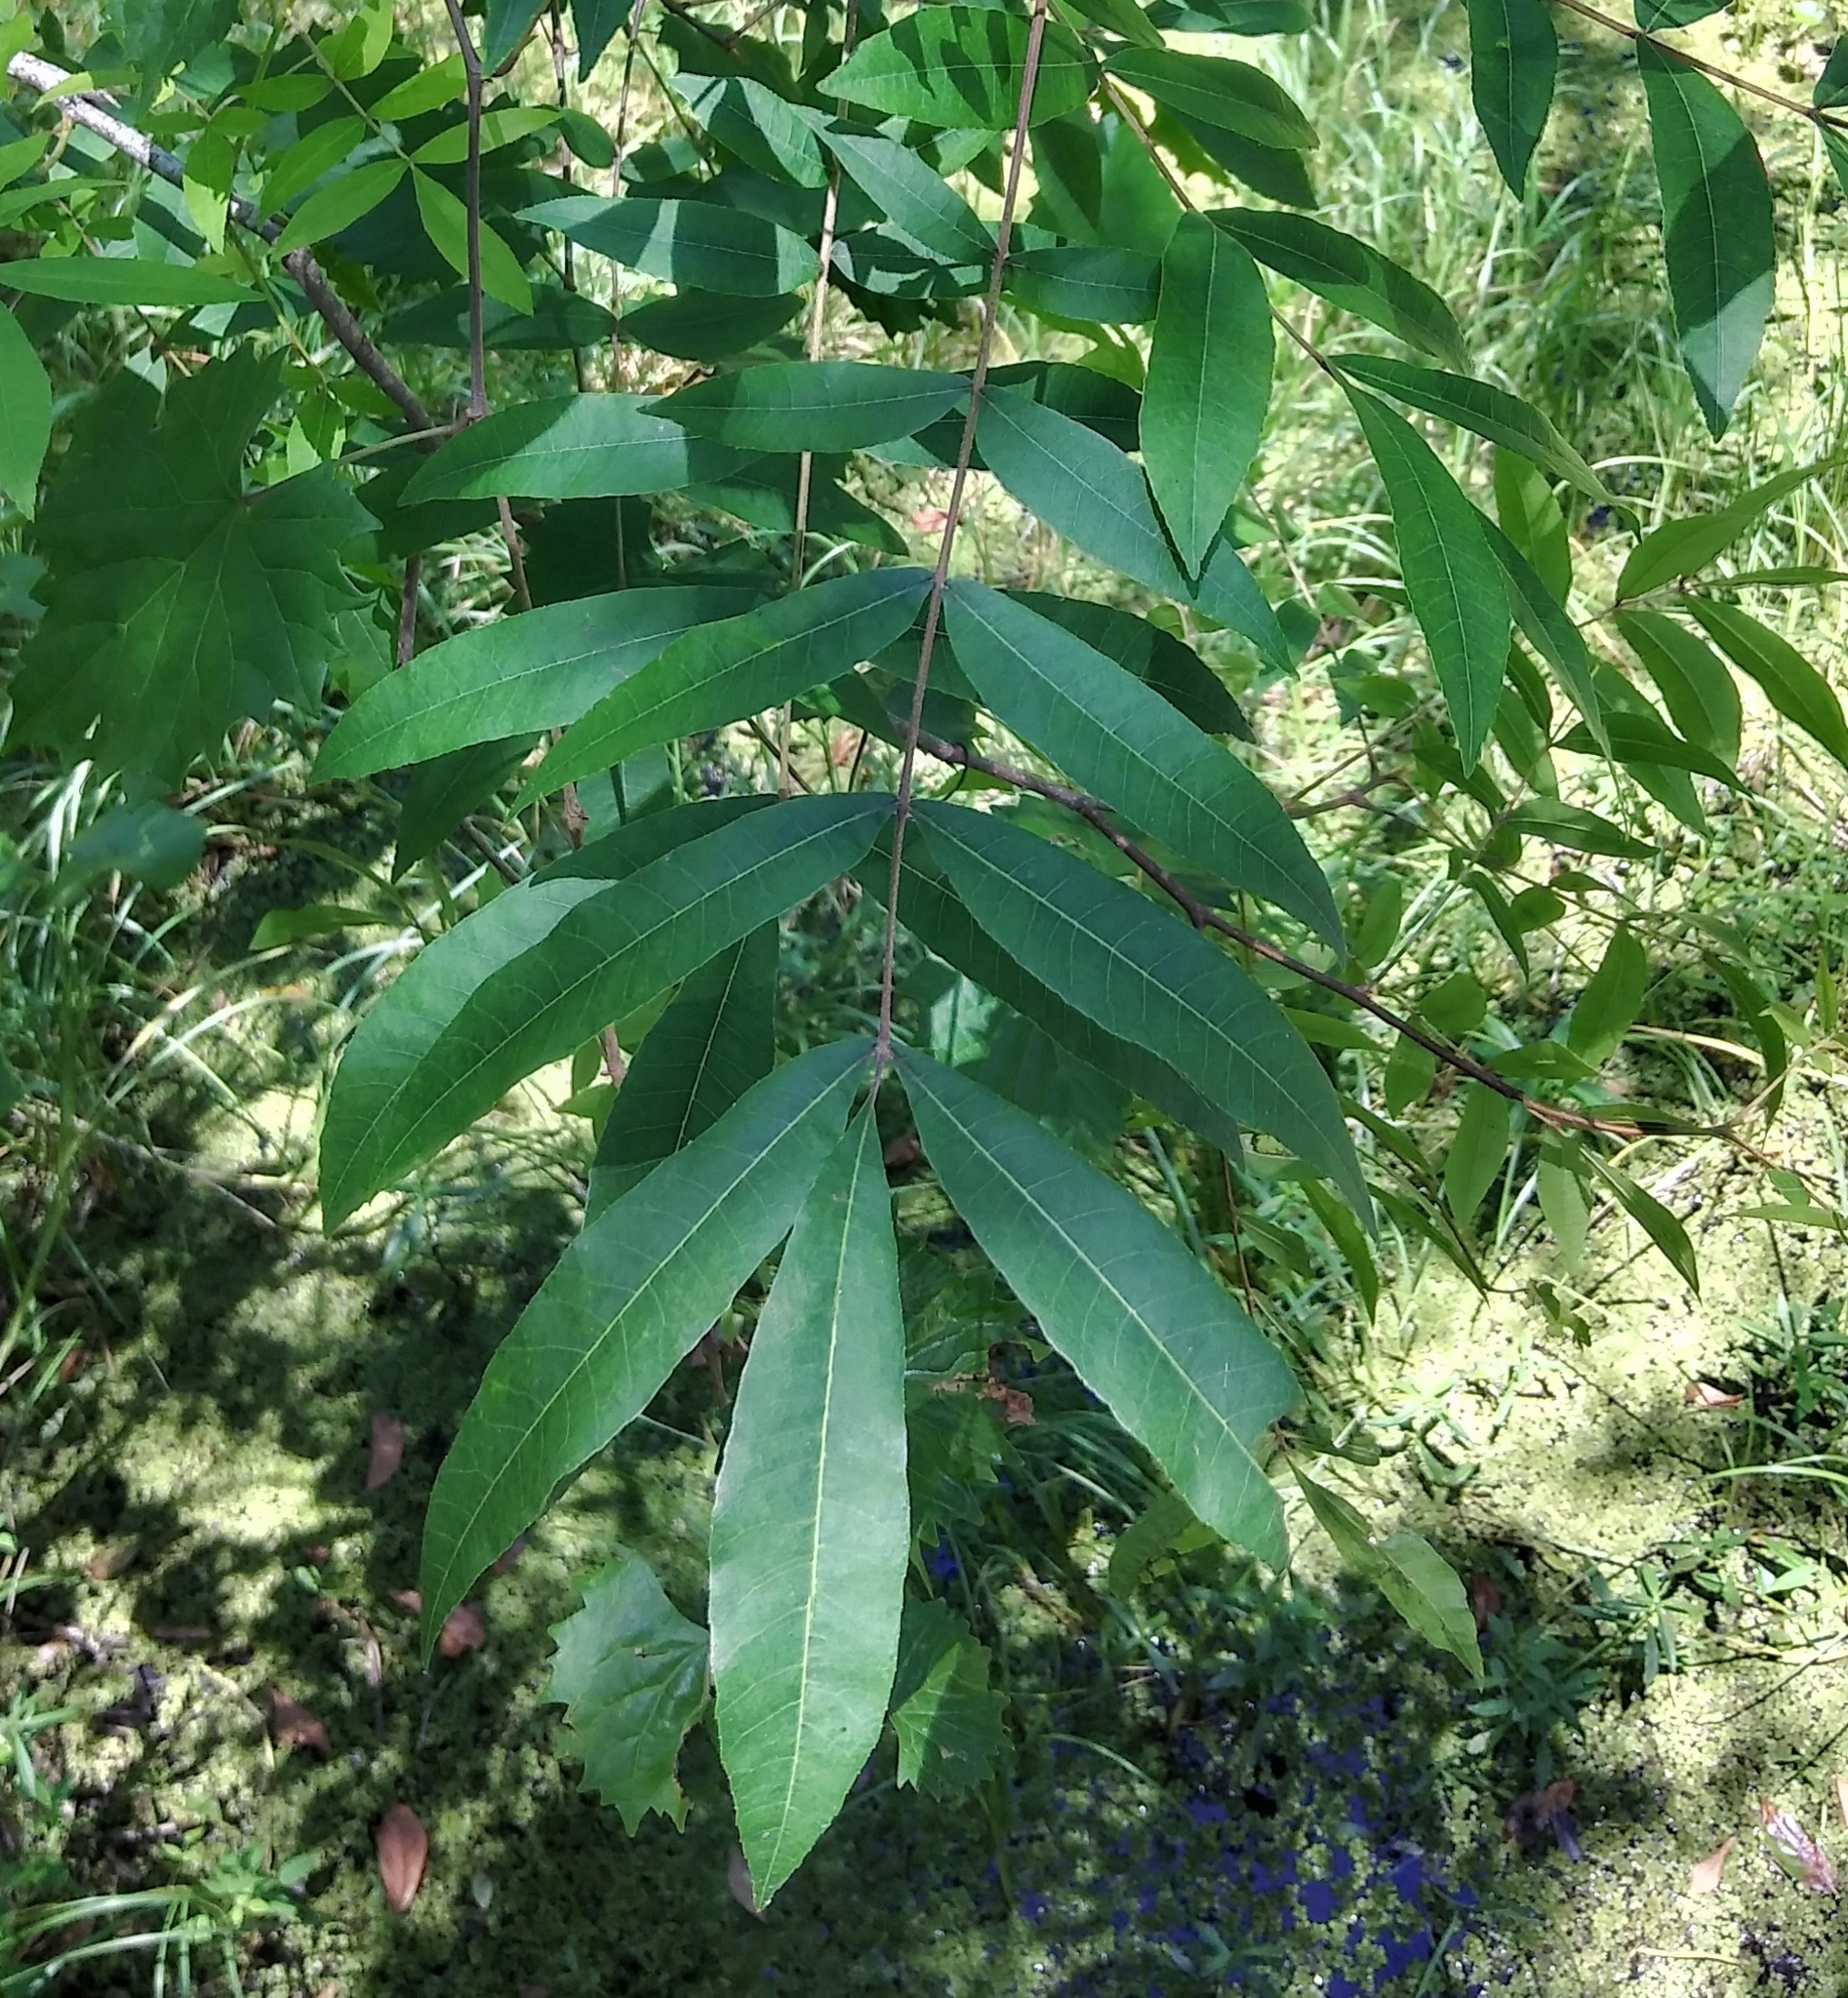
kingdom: Plantae
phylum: Tracheophyta
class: Magnoliopsida
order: Fagales
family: Juglandaceae
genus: Carya
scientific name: Carya aquatica
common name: Water hickory
